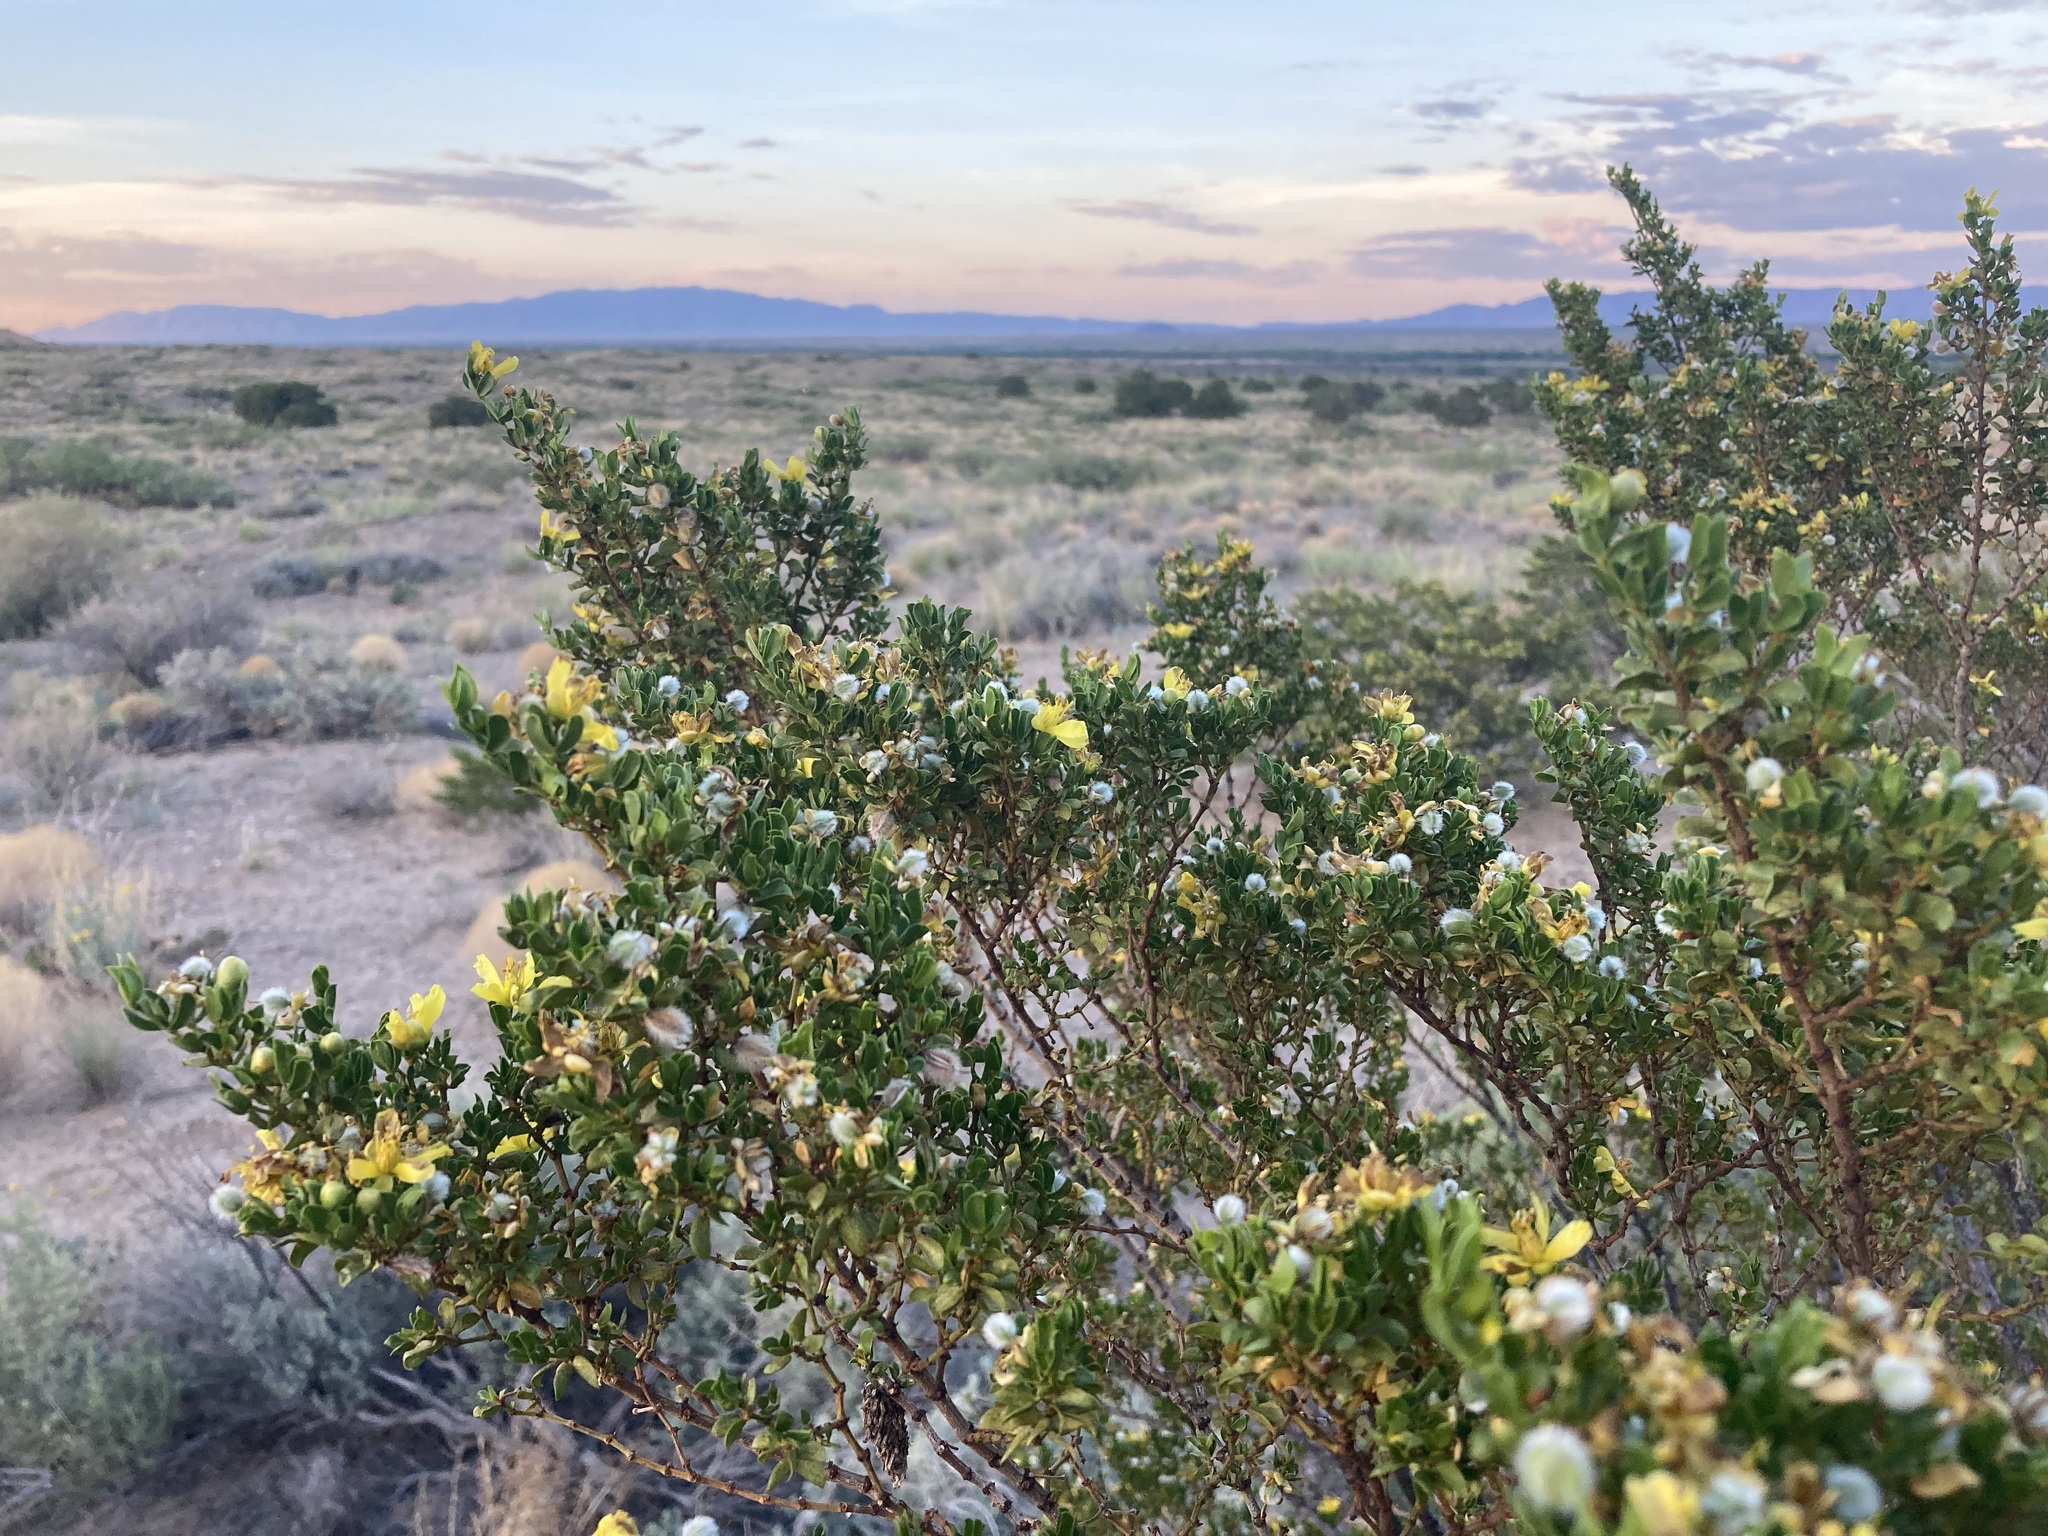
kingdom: Plantae
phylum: Tracheophyta
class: Magnoliopsida
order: Zygophyllales
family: Zygophyllaceae
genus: Larrea
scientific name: Larrea tridentata
